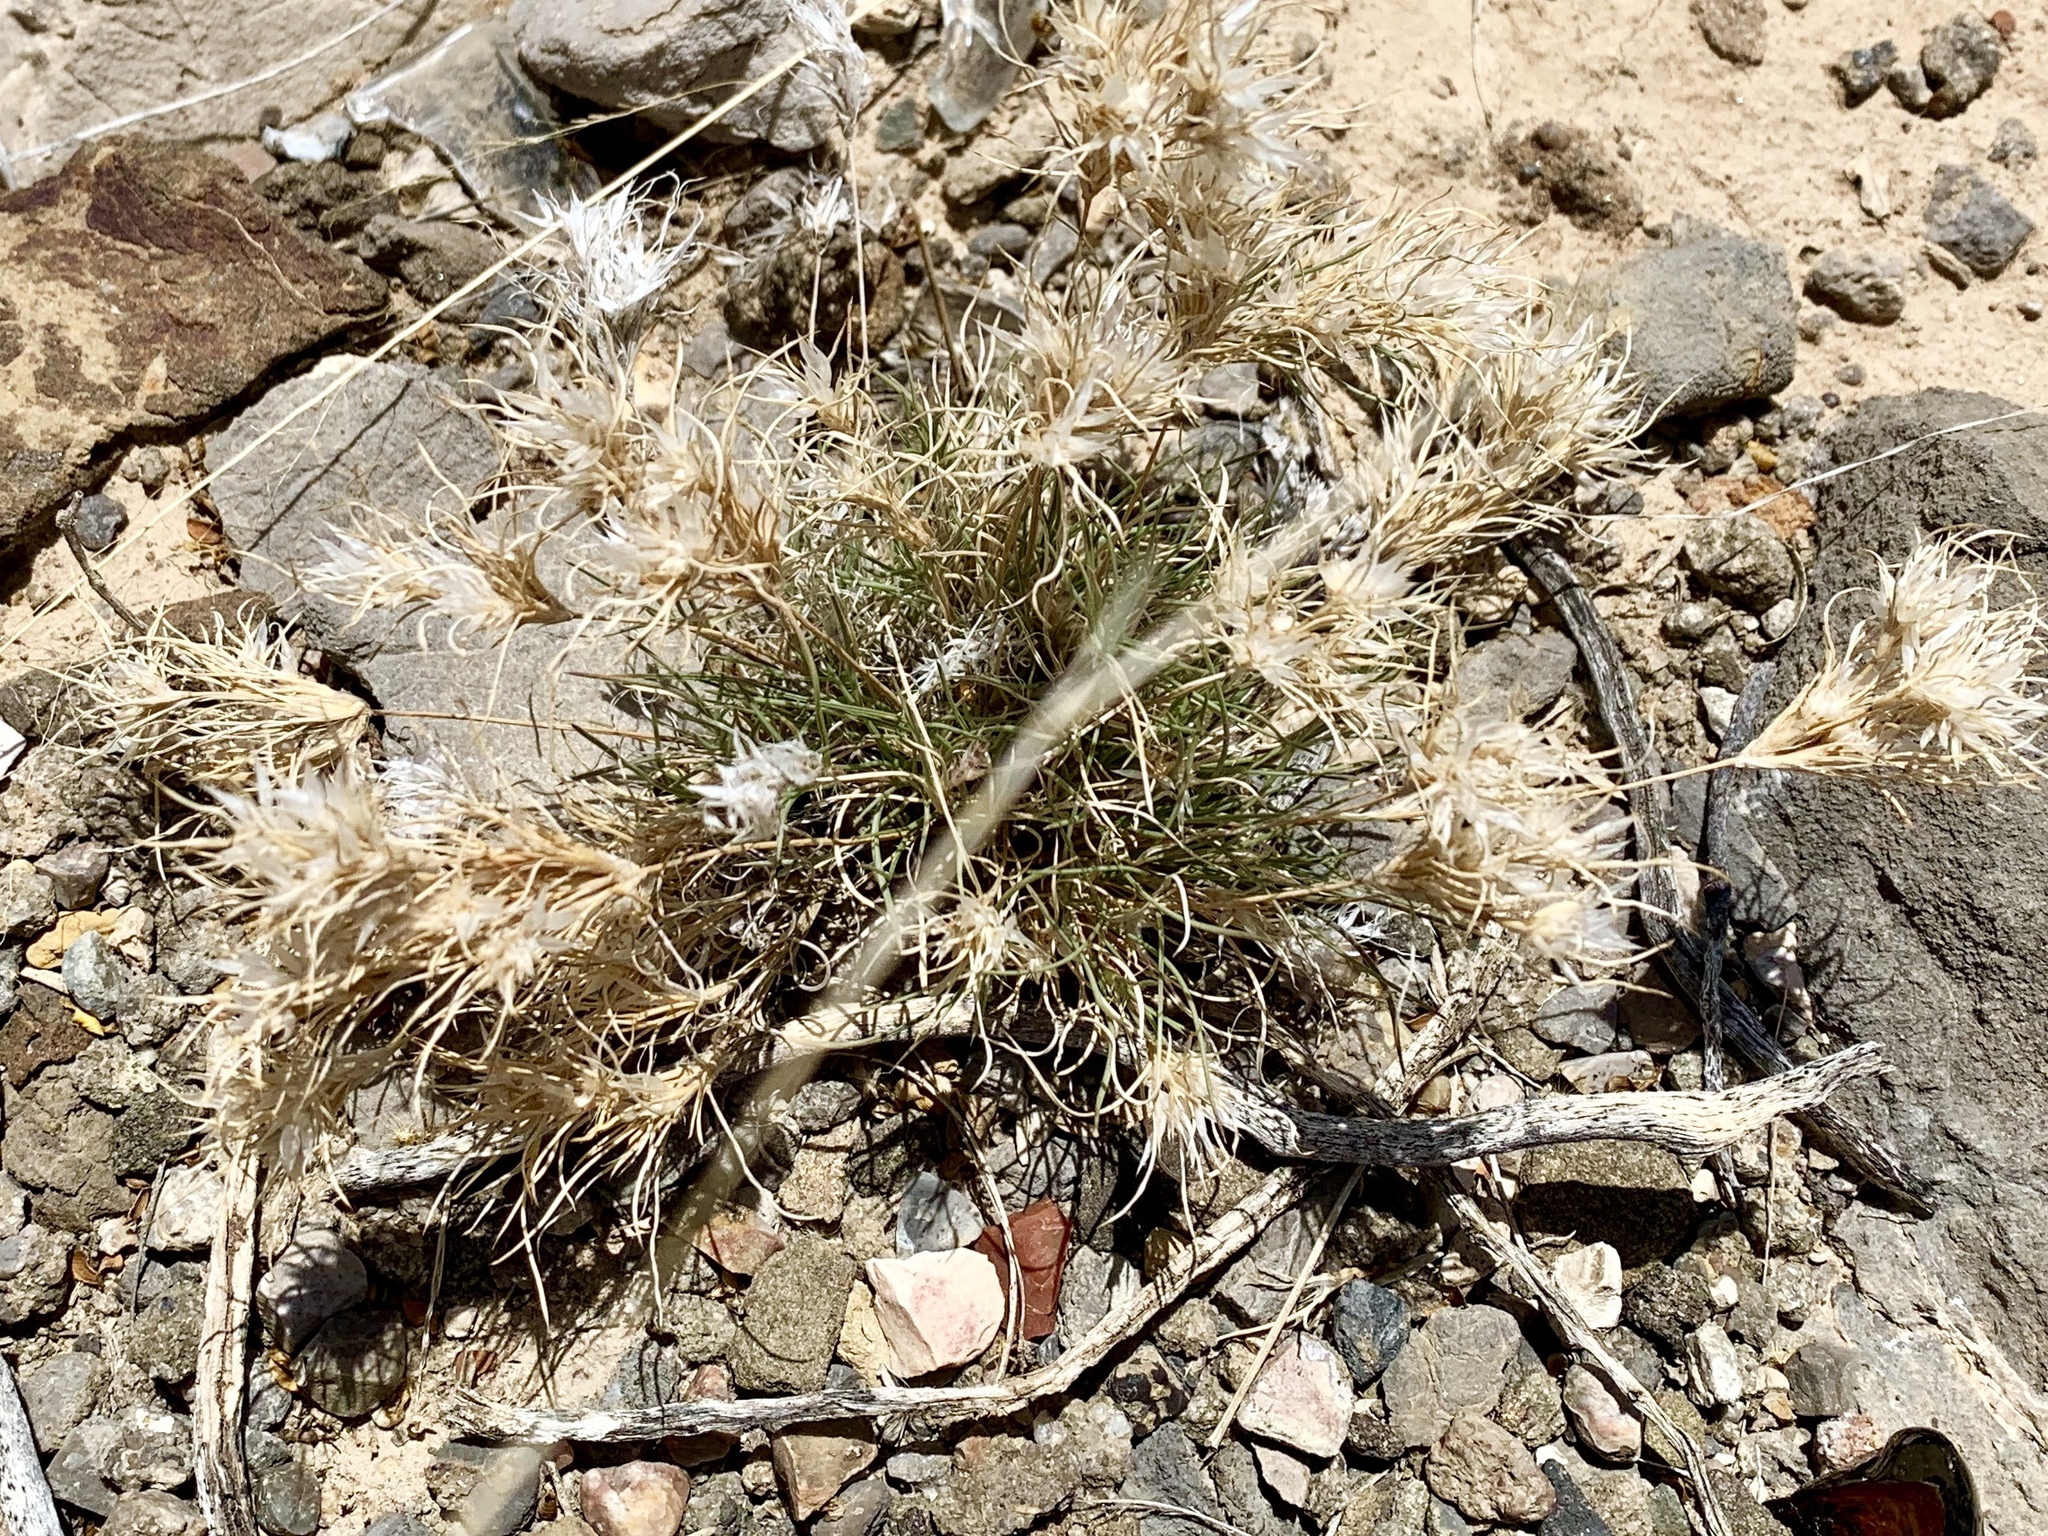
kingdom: Plantae
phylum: Tracheophyta
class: Liliopsida
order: Poales
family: Poaceae
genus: Dasyochloa
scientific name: Dasyochloa pulchella
